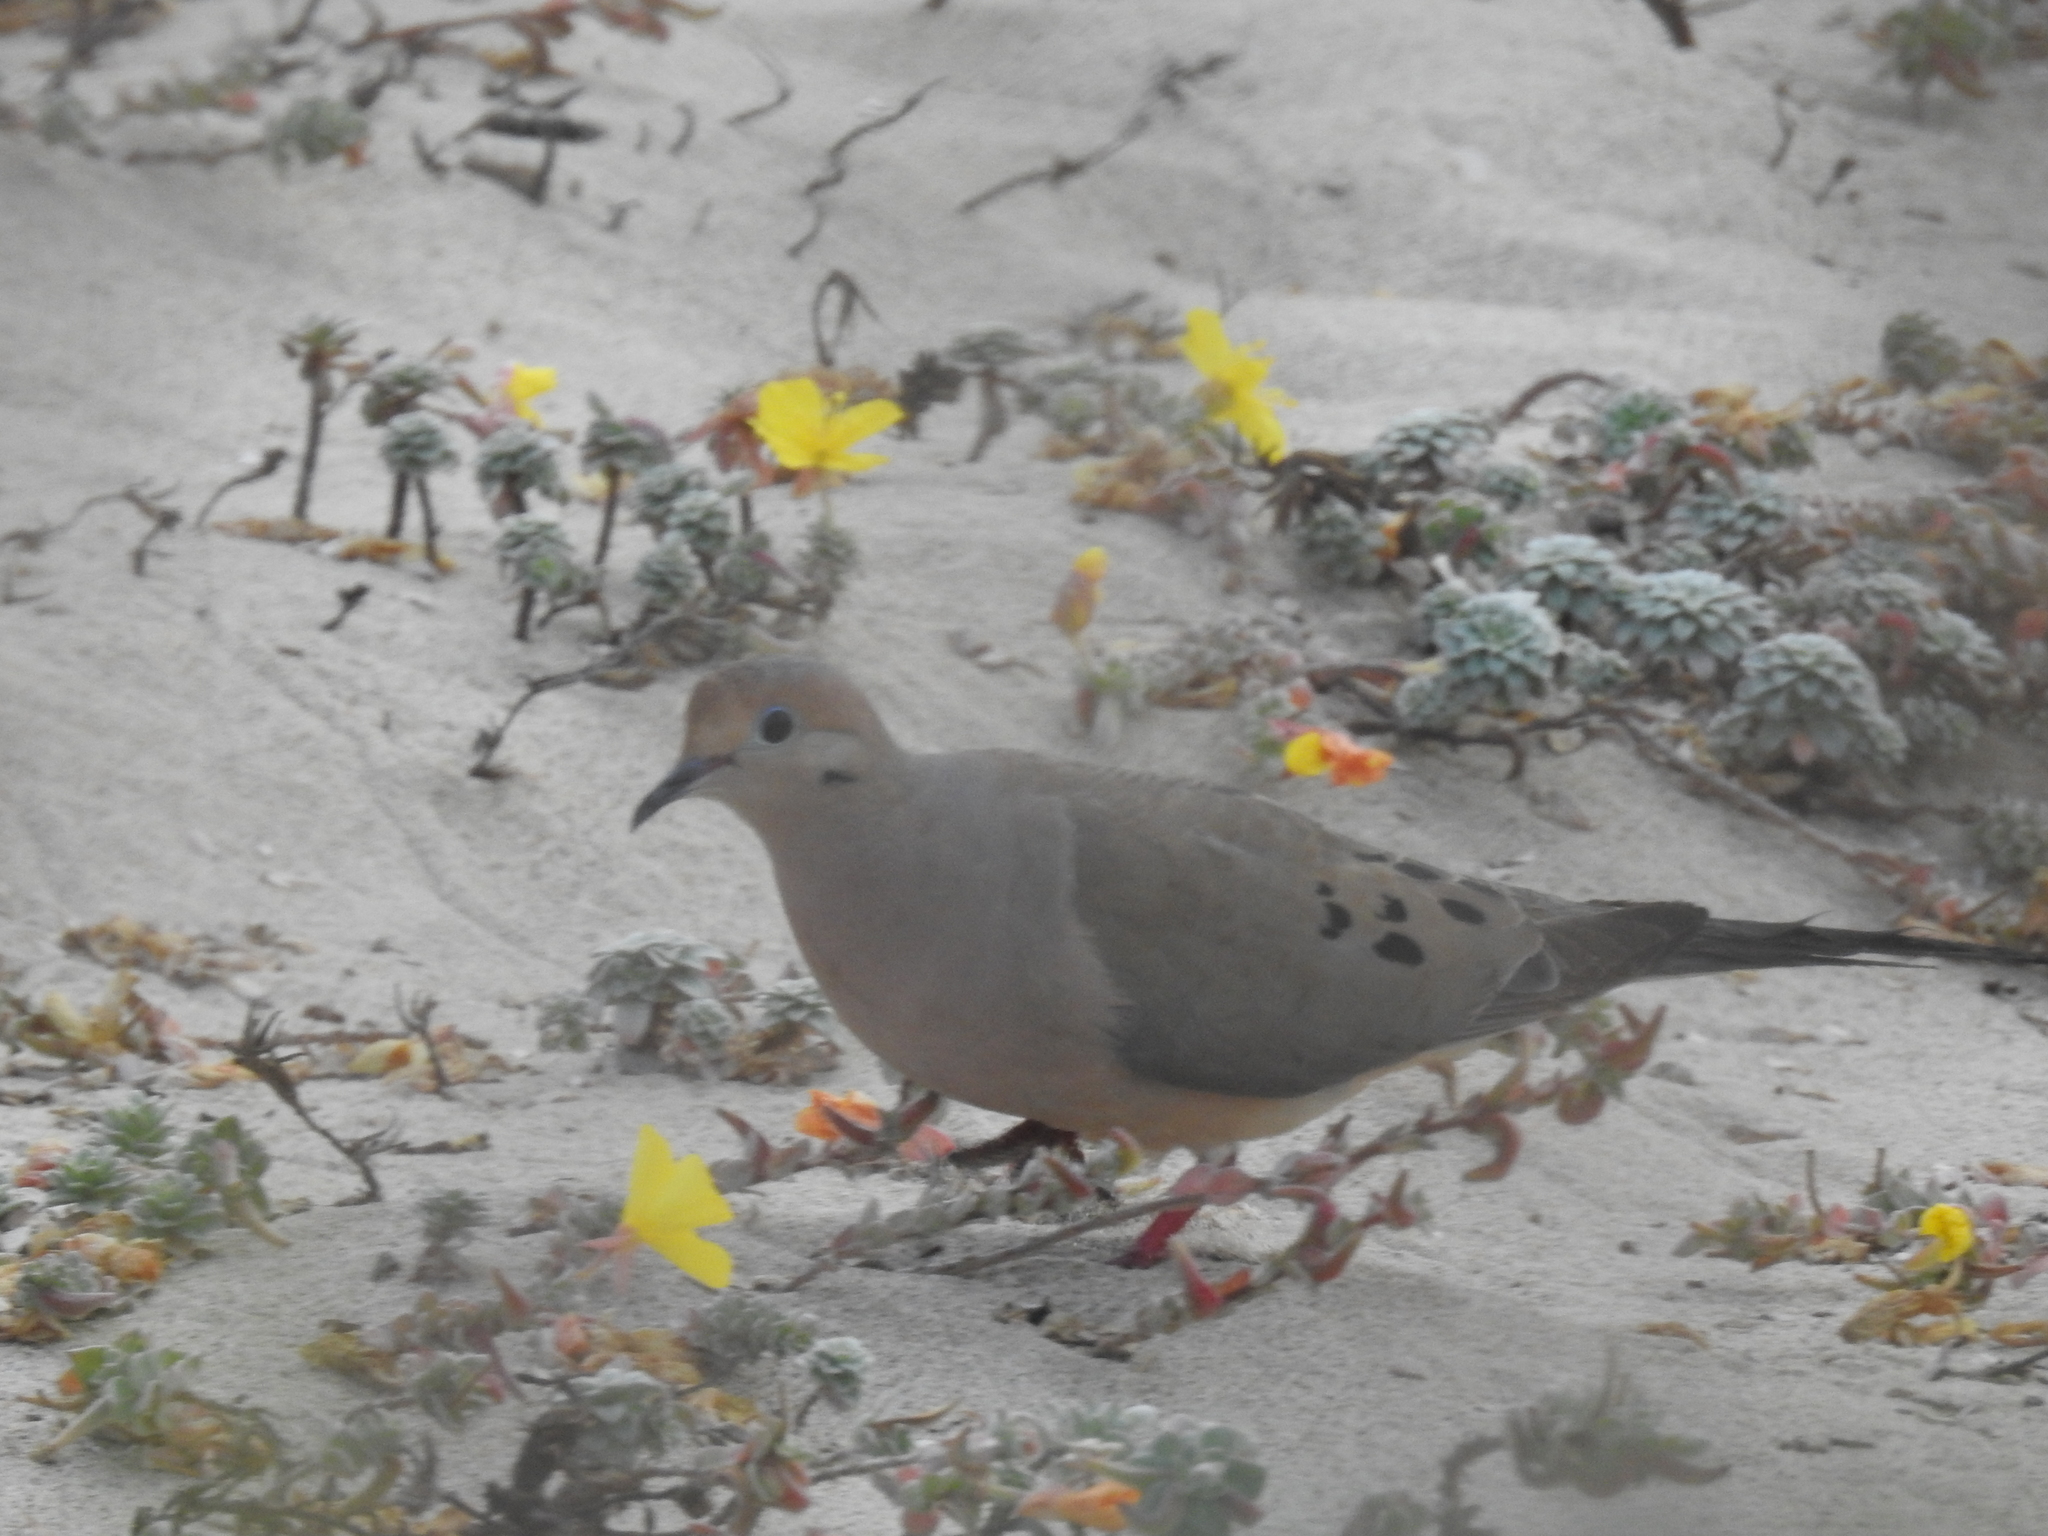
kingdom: Animalia
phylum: Chordata
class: Aves
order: Columbiformes
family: Columbidae
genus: Zenaida
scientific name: Zenaida macroura
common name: Mourning dove
